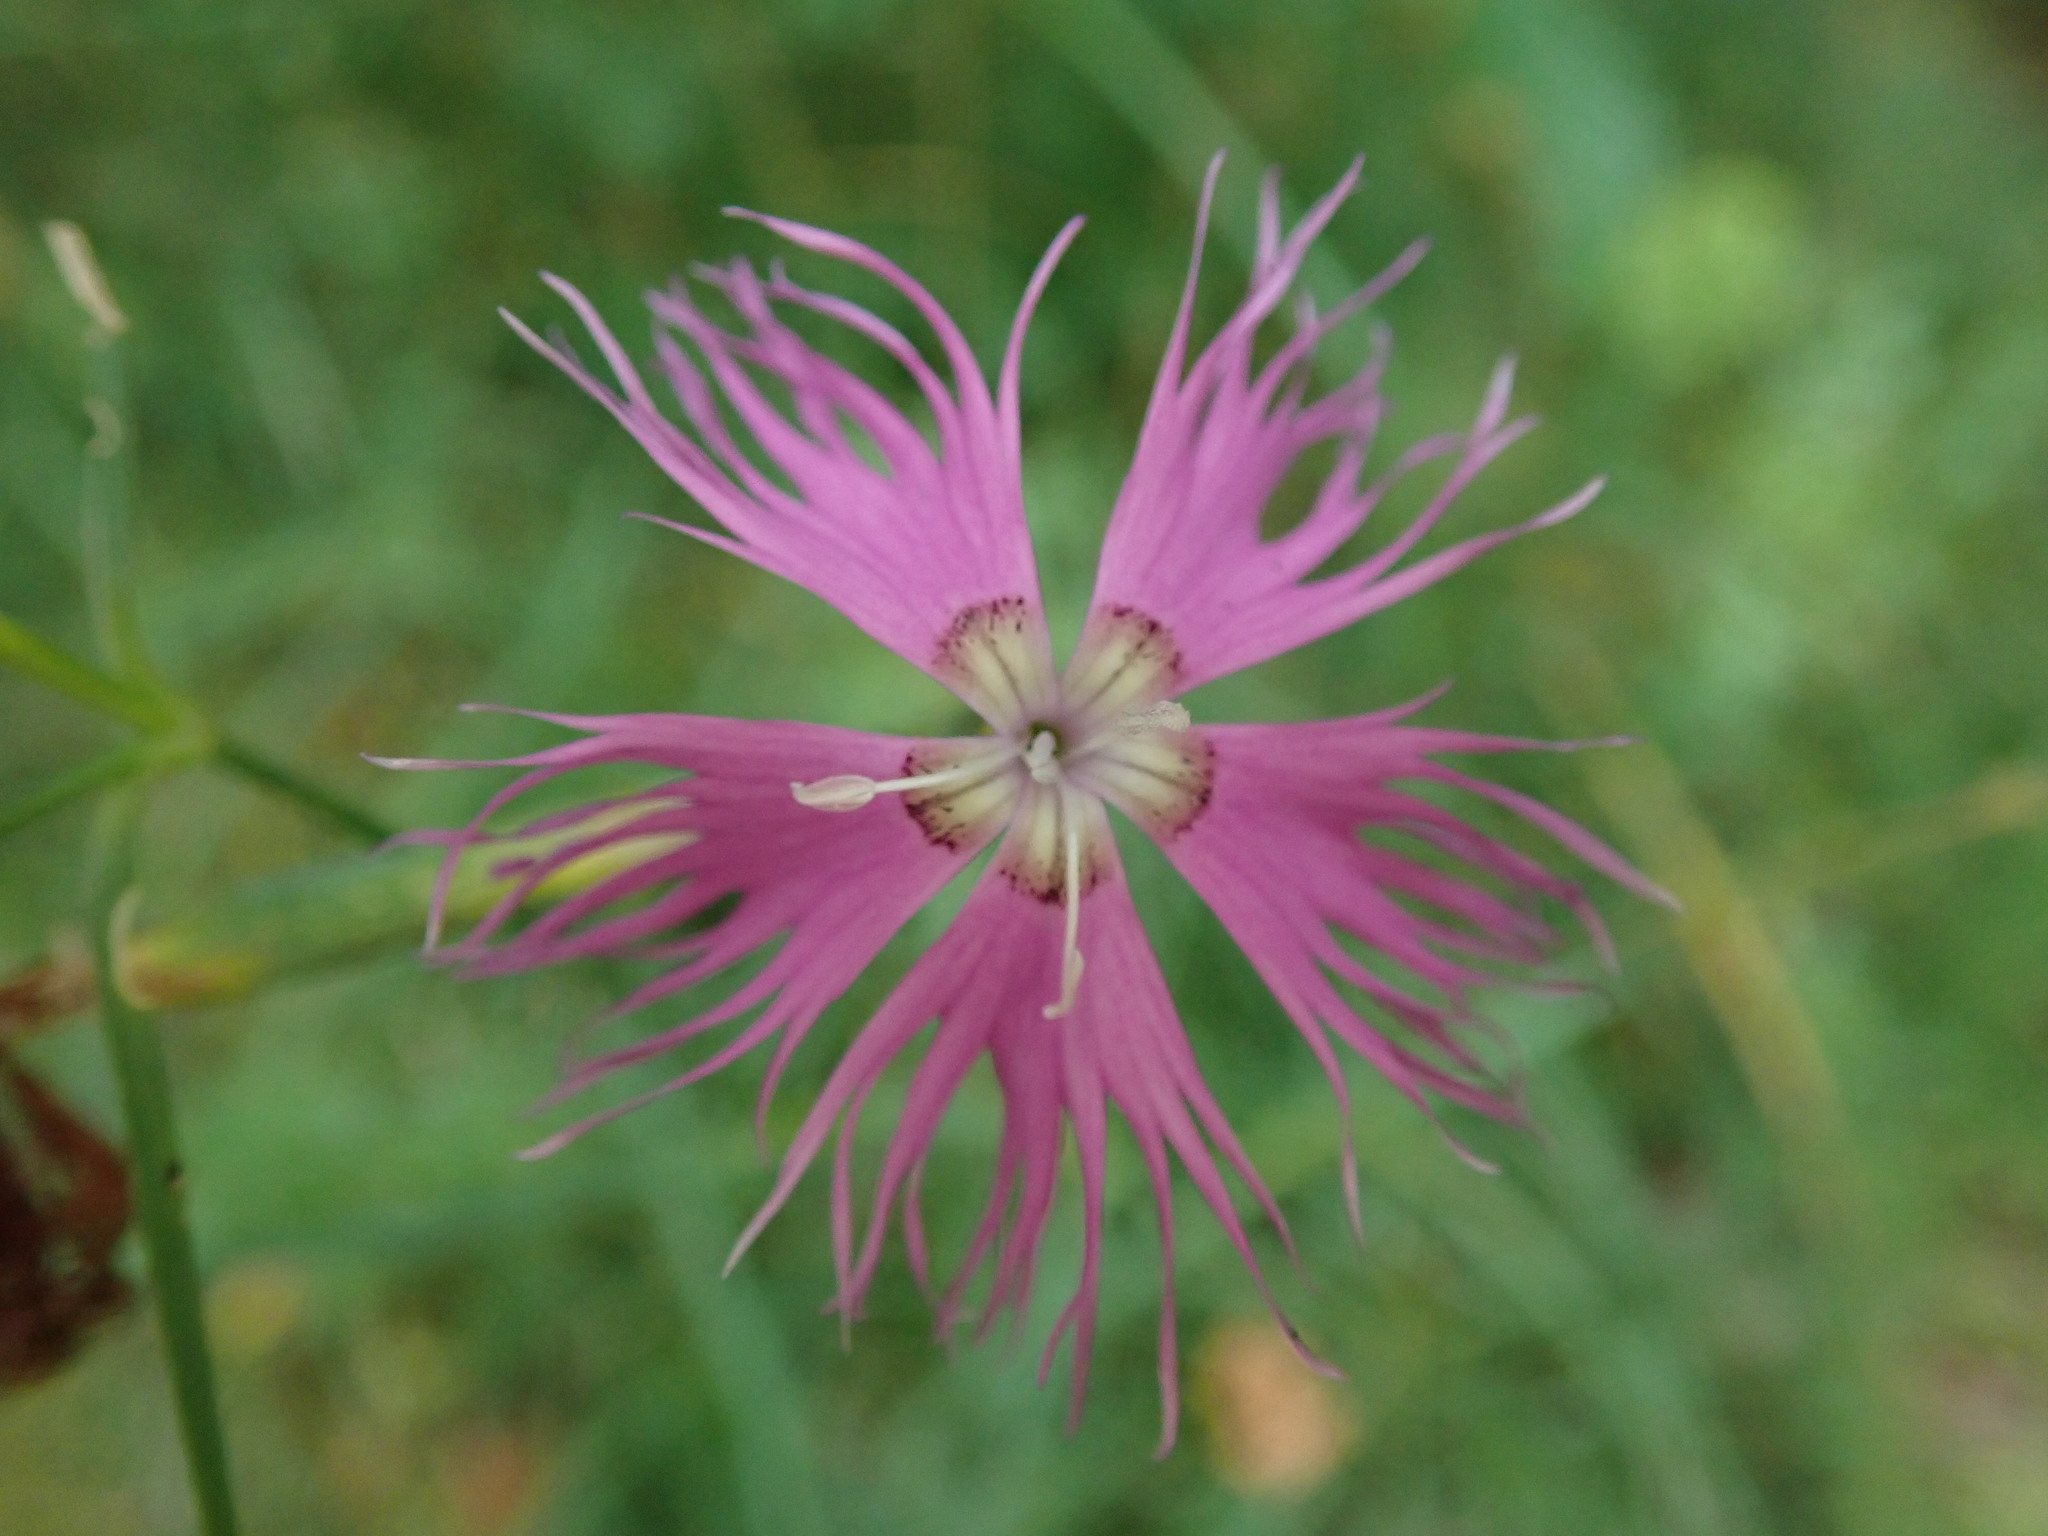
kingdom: Plantae
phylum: Tracheophyta
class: Magnoliopsida
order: Caryophyllales
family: Caryophyllaceae
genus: Dianthus
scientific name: Dianthus hyssopifolius
